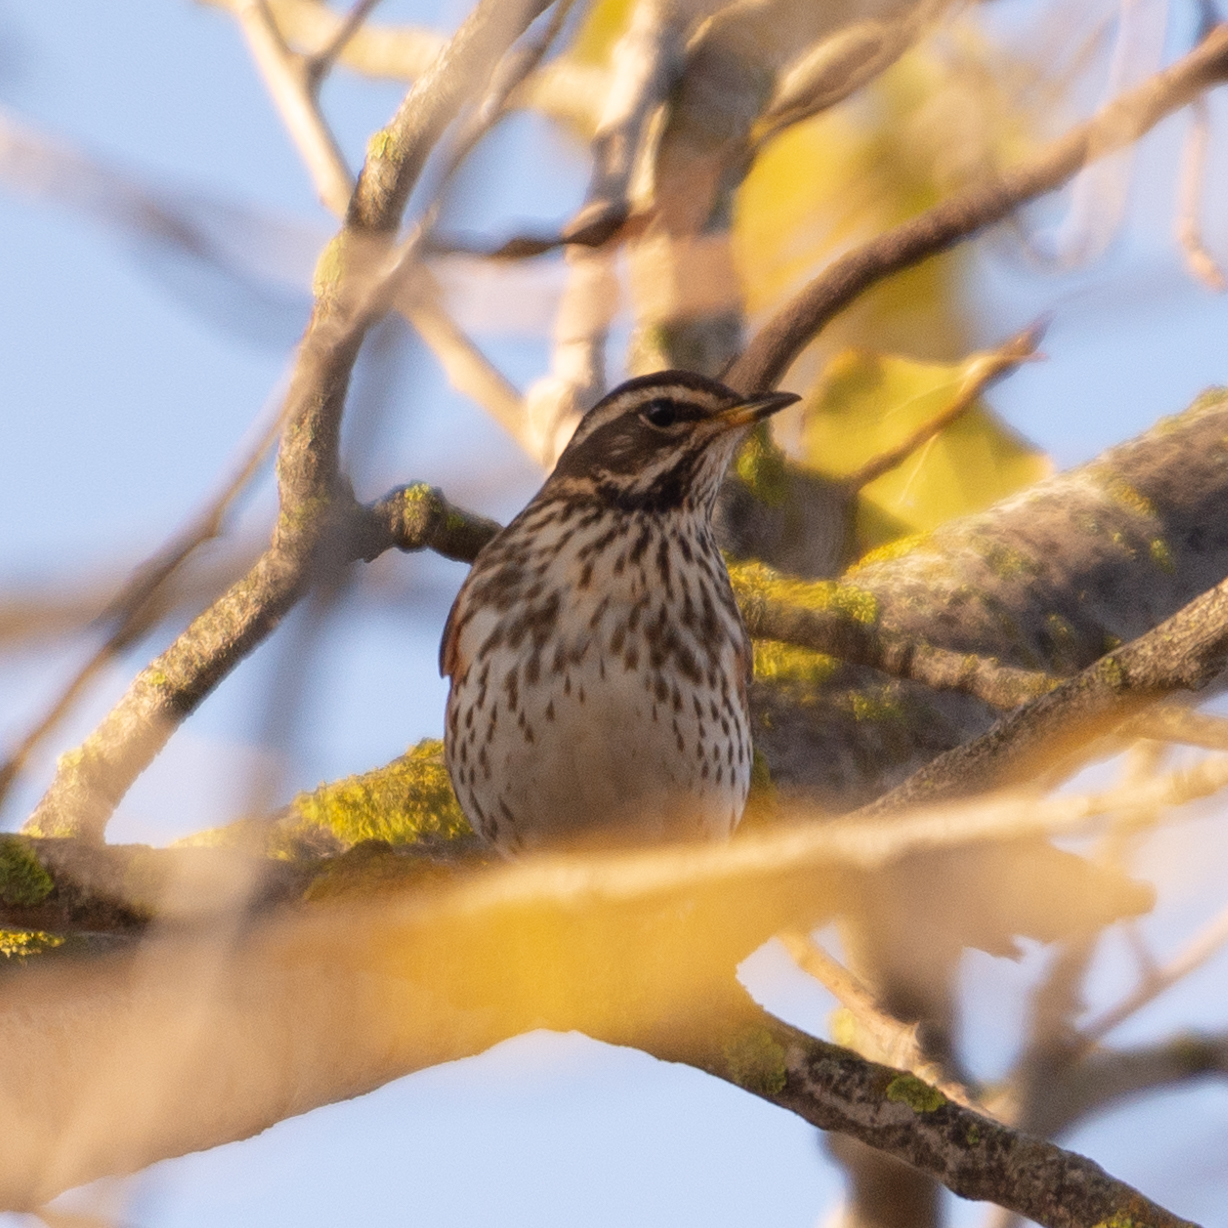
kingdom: Animalia
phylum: Chordata
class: Aves
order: Passeriformes
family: Turdidae
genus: Turdus
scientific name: Turdus iliacus
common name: Redwing
